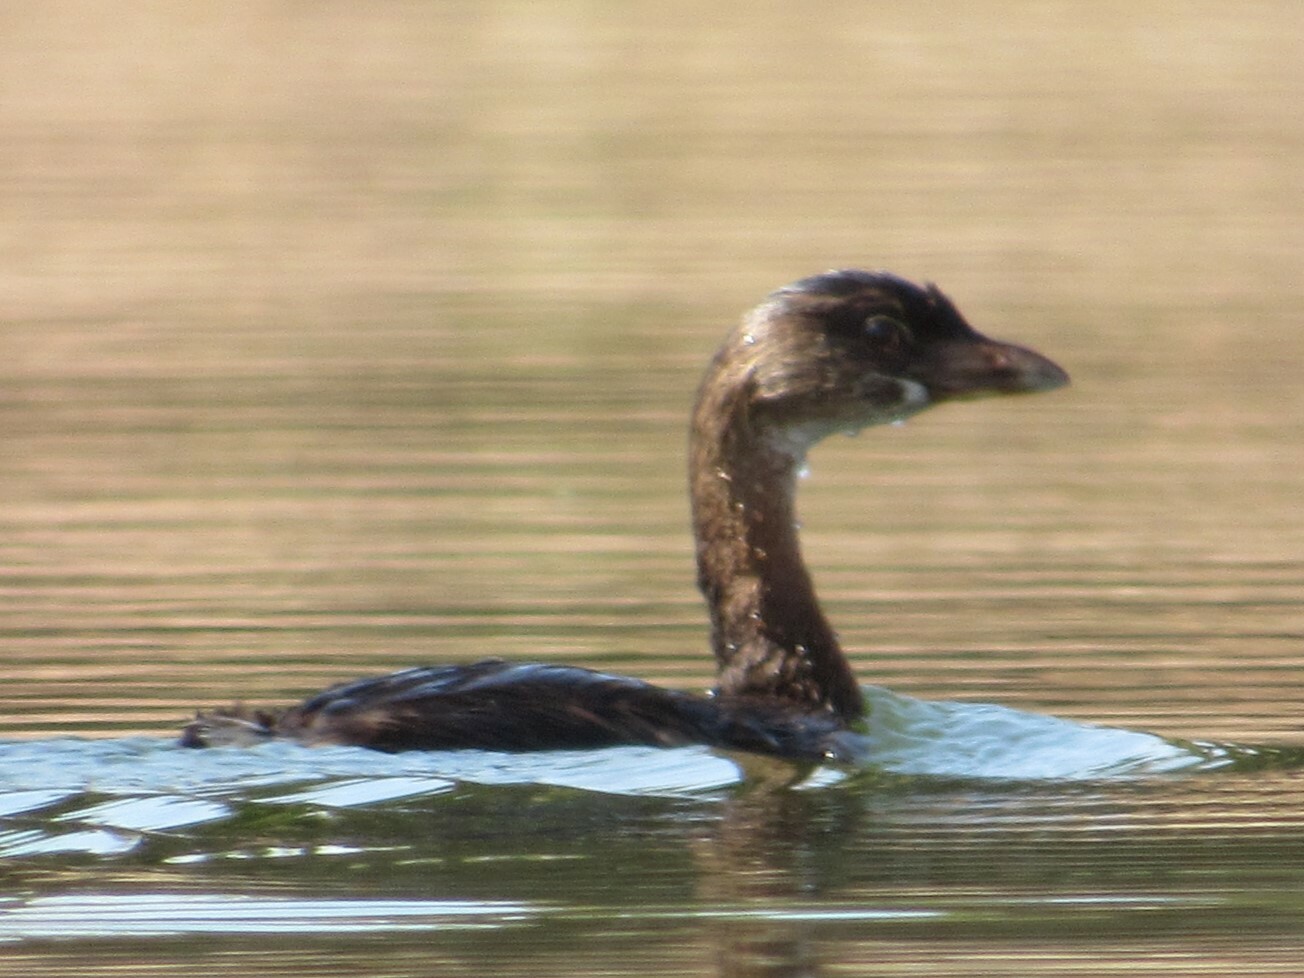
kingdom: Animalia
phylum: Chordata
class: Aves
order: Podicipediformes
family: Podicipedidae
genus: Podilymbus
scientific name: Podilymbus podiceps
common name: Pied-billed grebe
